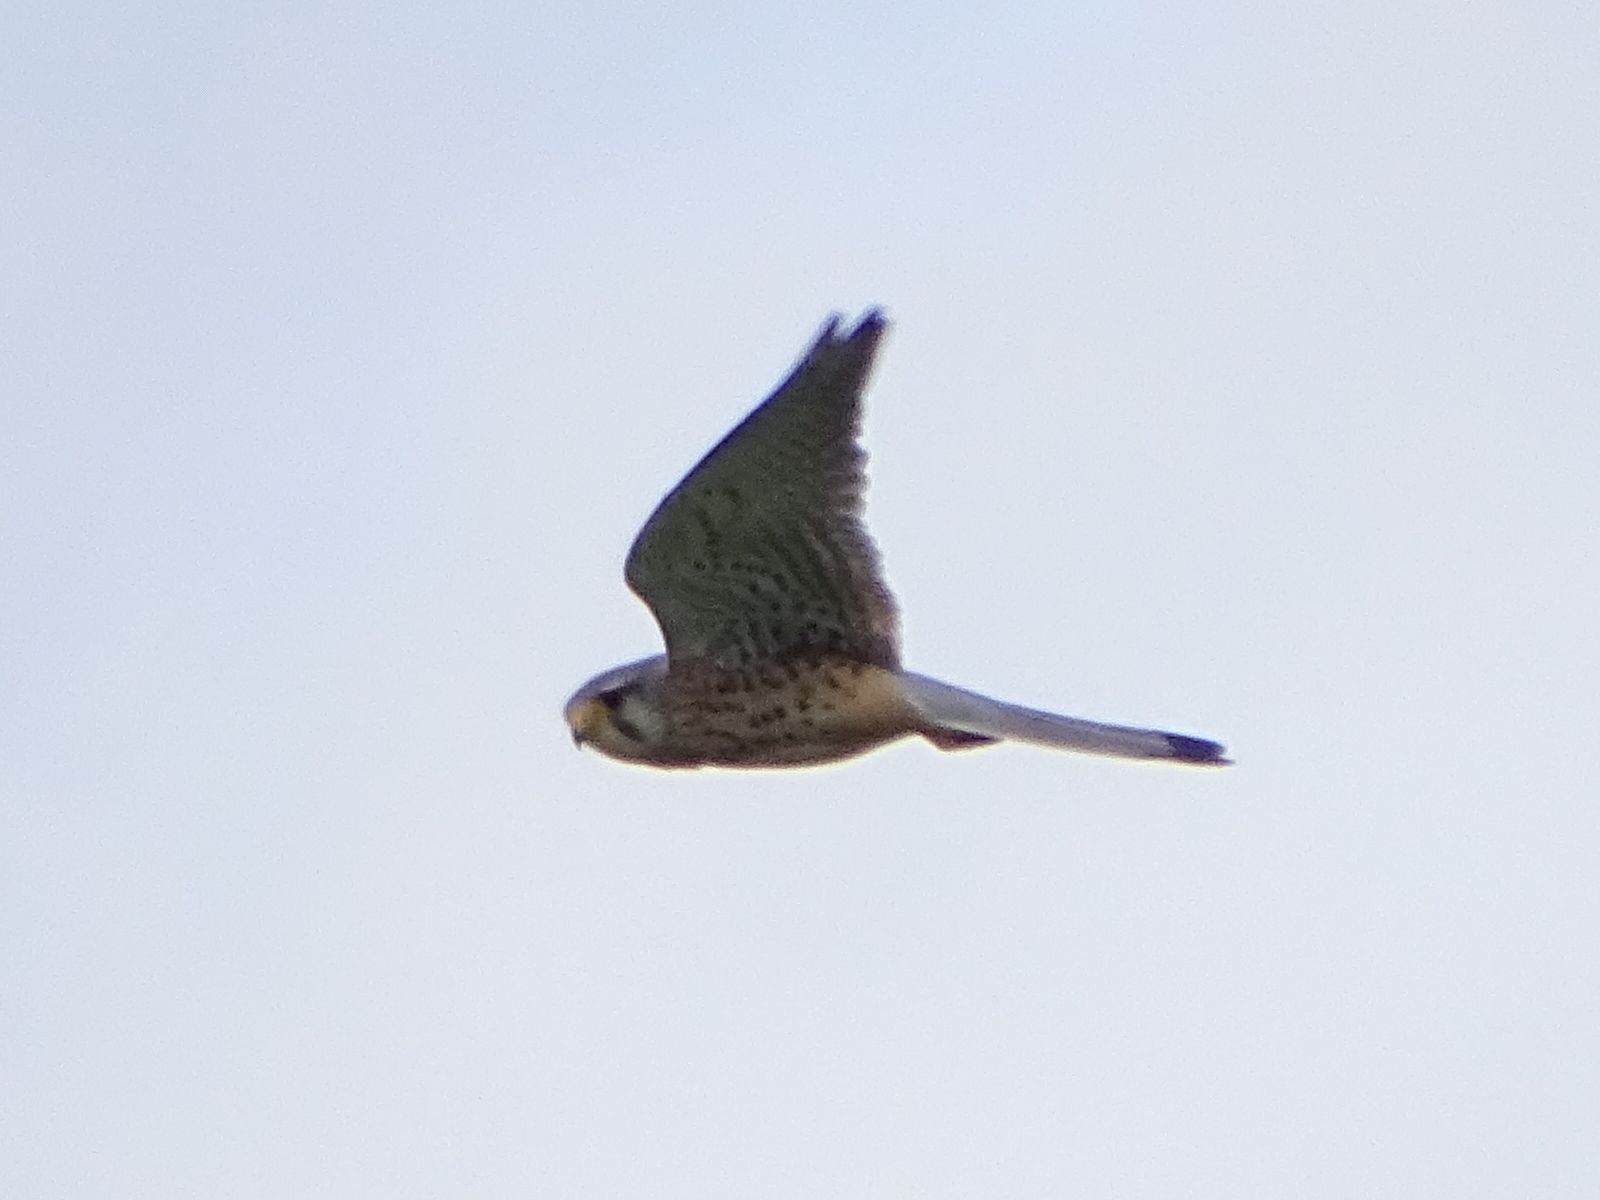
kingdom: Animalia
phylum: Chordata
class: Aves
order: Falconiformes
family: Falconidae
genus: Falco
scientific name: Falco tinnunculus
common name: Common kestrel
